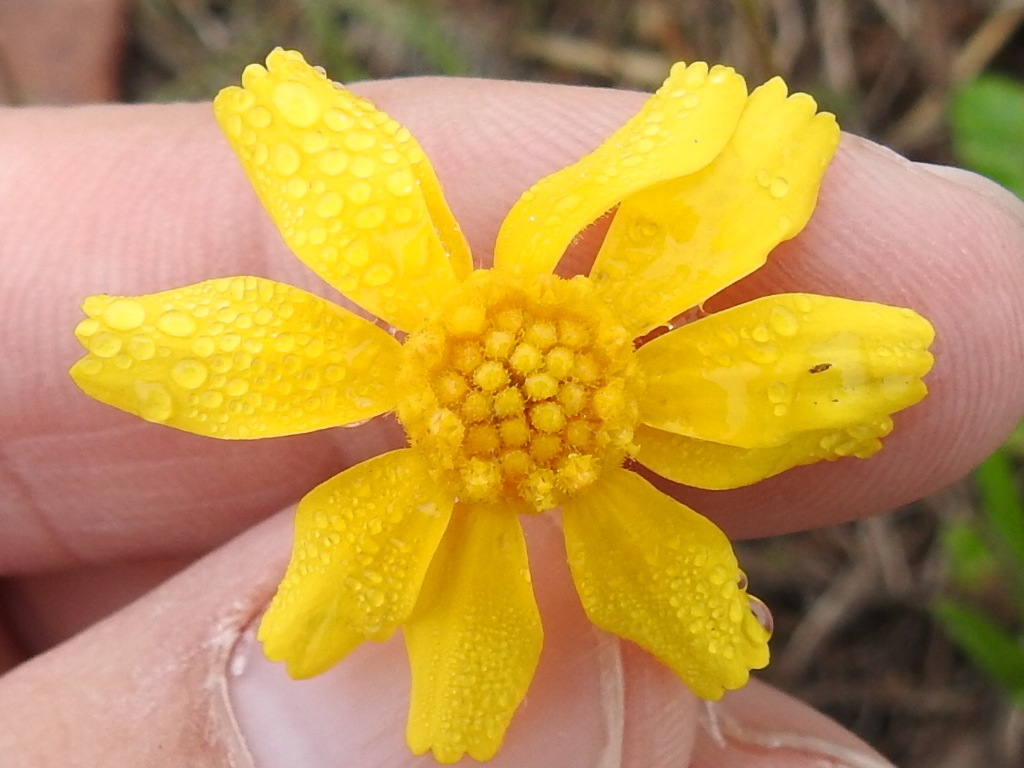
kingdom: Plantae
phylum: Tracheophyta
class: Magnoliopsida
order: Asterales
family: Asteraceae
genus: Tetraneuris
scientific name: Tetraneuris linearifolia
